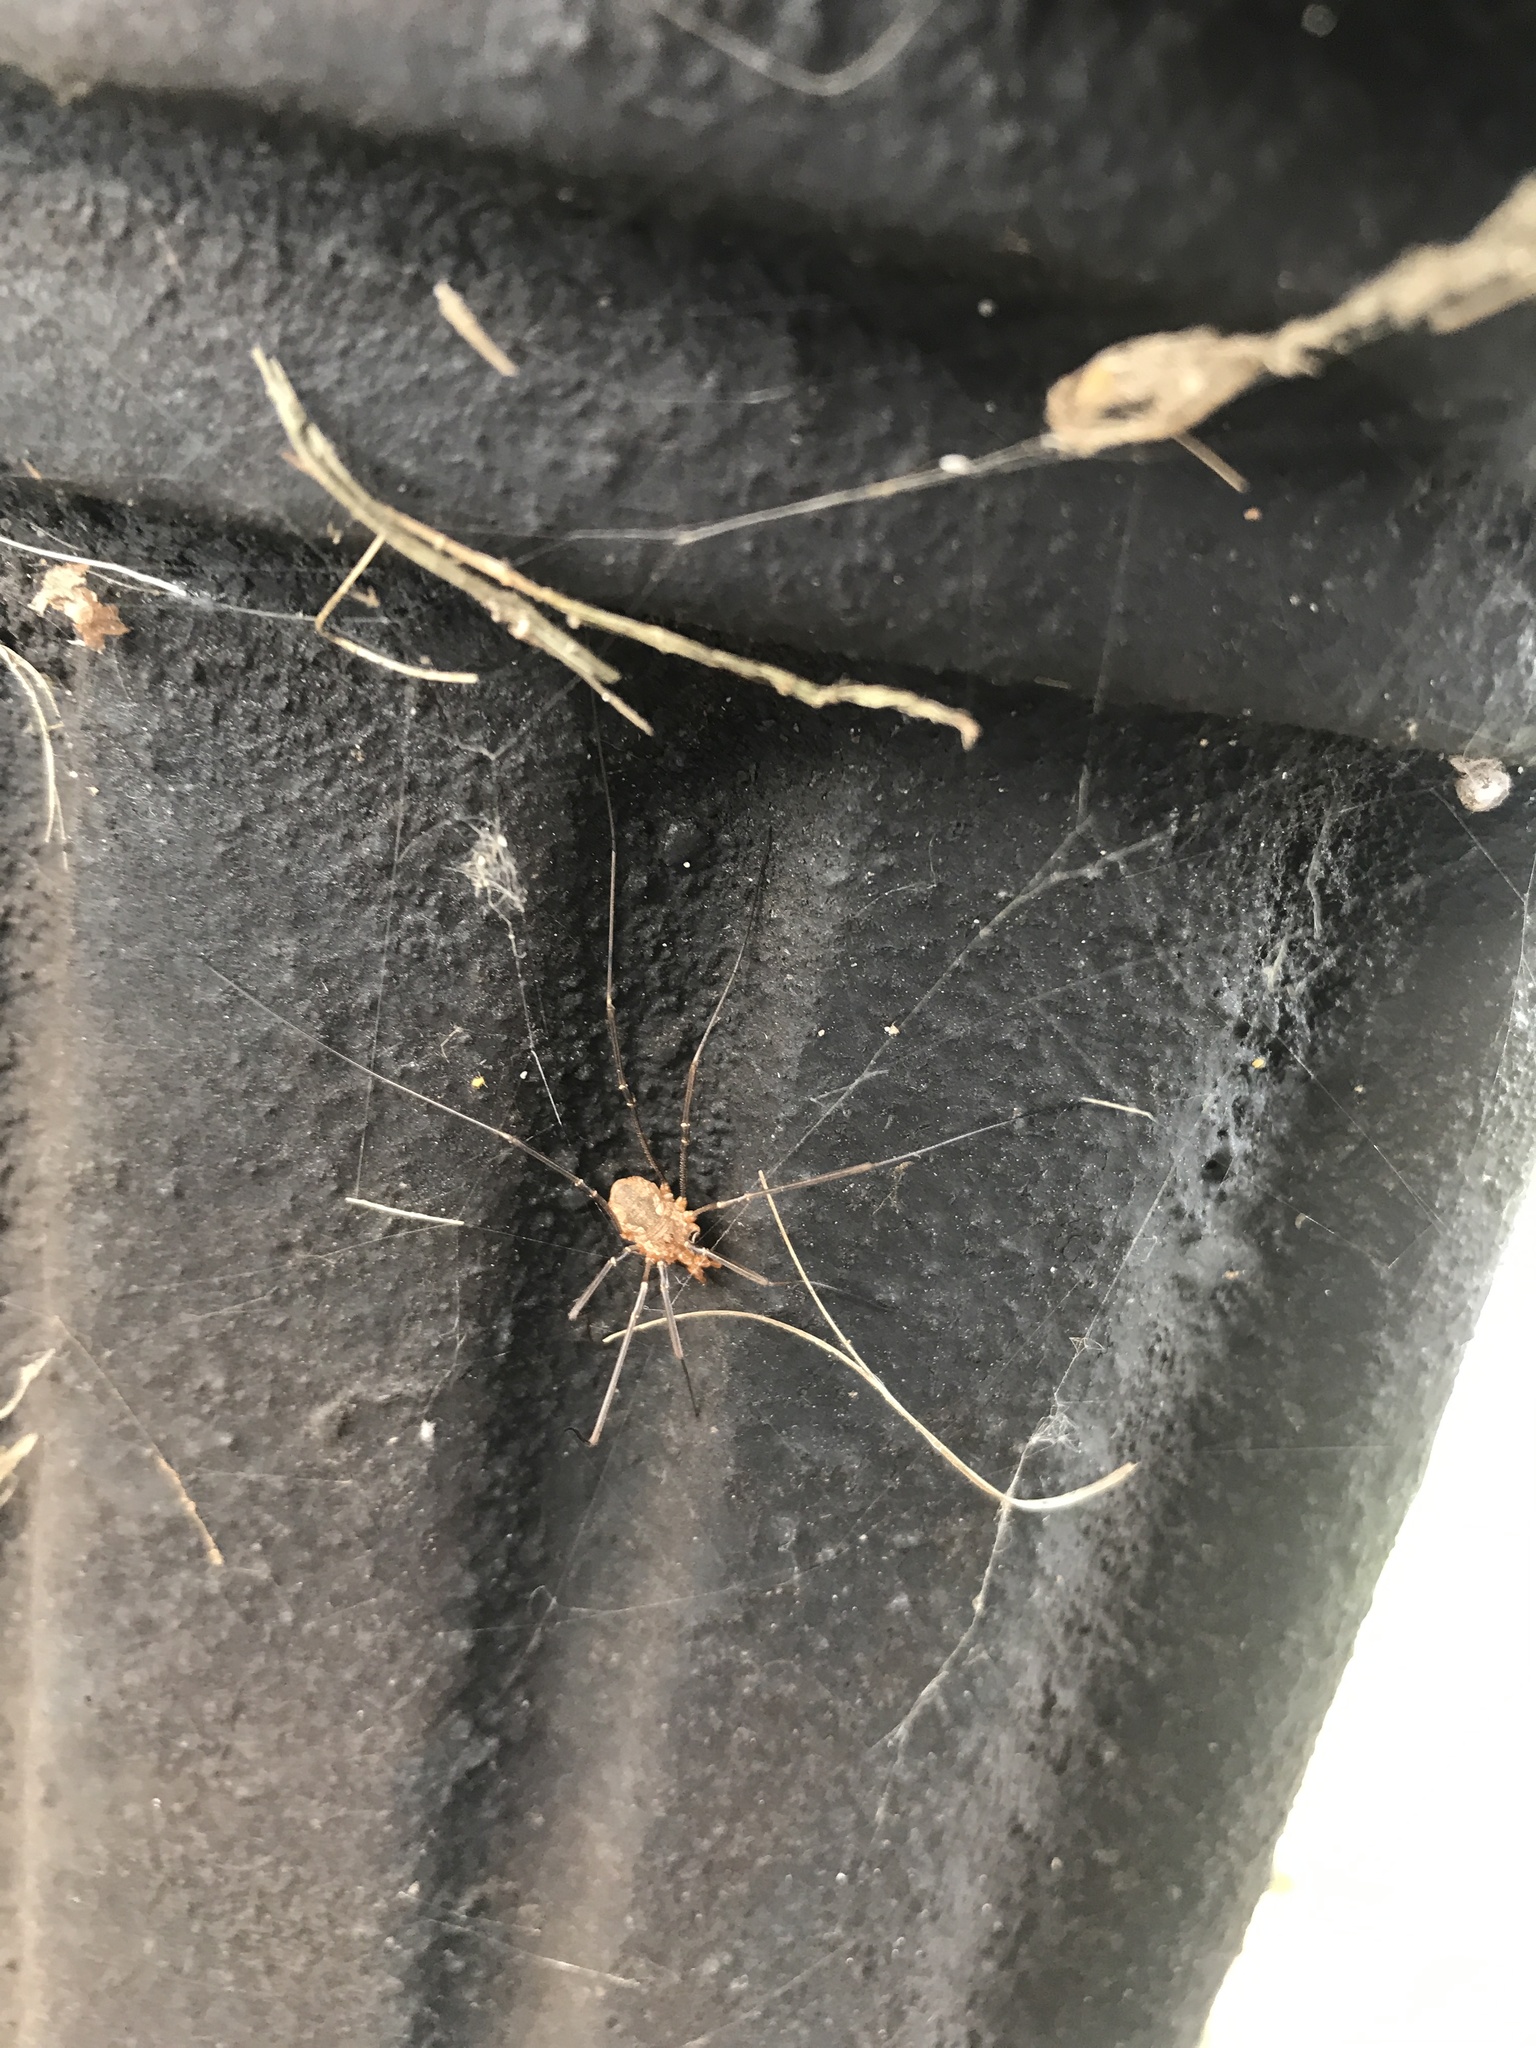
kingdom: Animalia
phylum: Arthropoda
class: Arachnida
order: Opiliones
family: Phalangiidae
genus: Phalangium
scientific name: Phalangium opilio
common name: Daddy longleg
